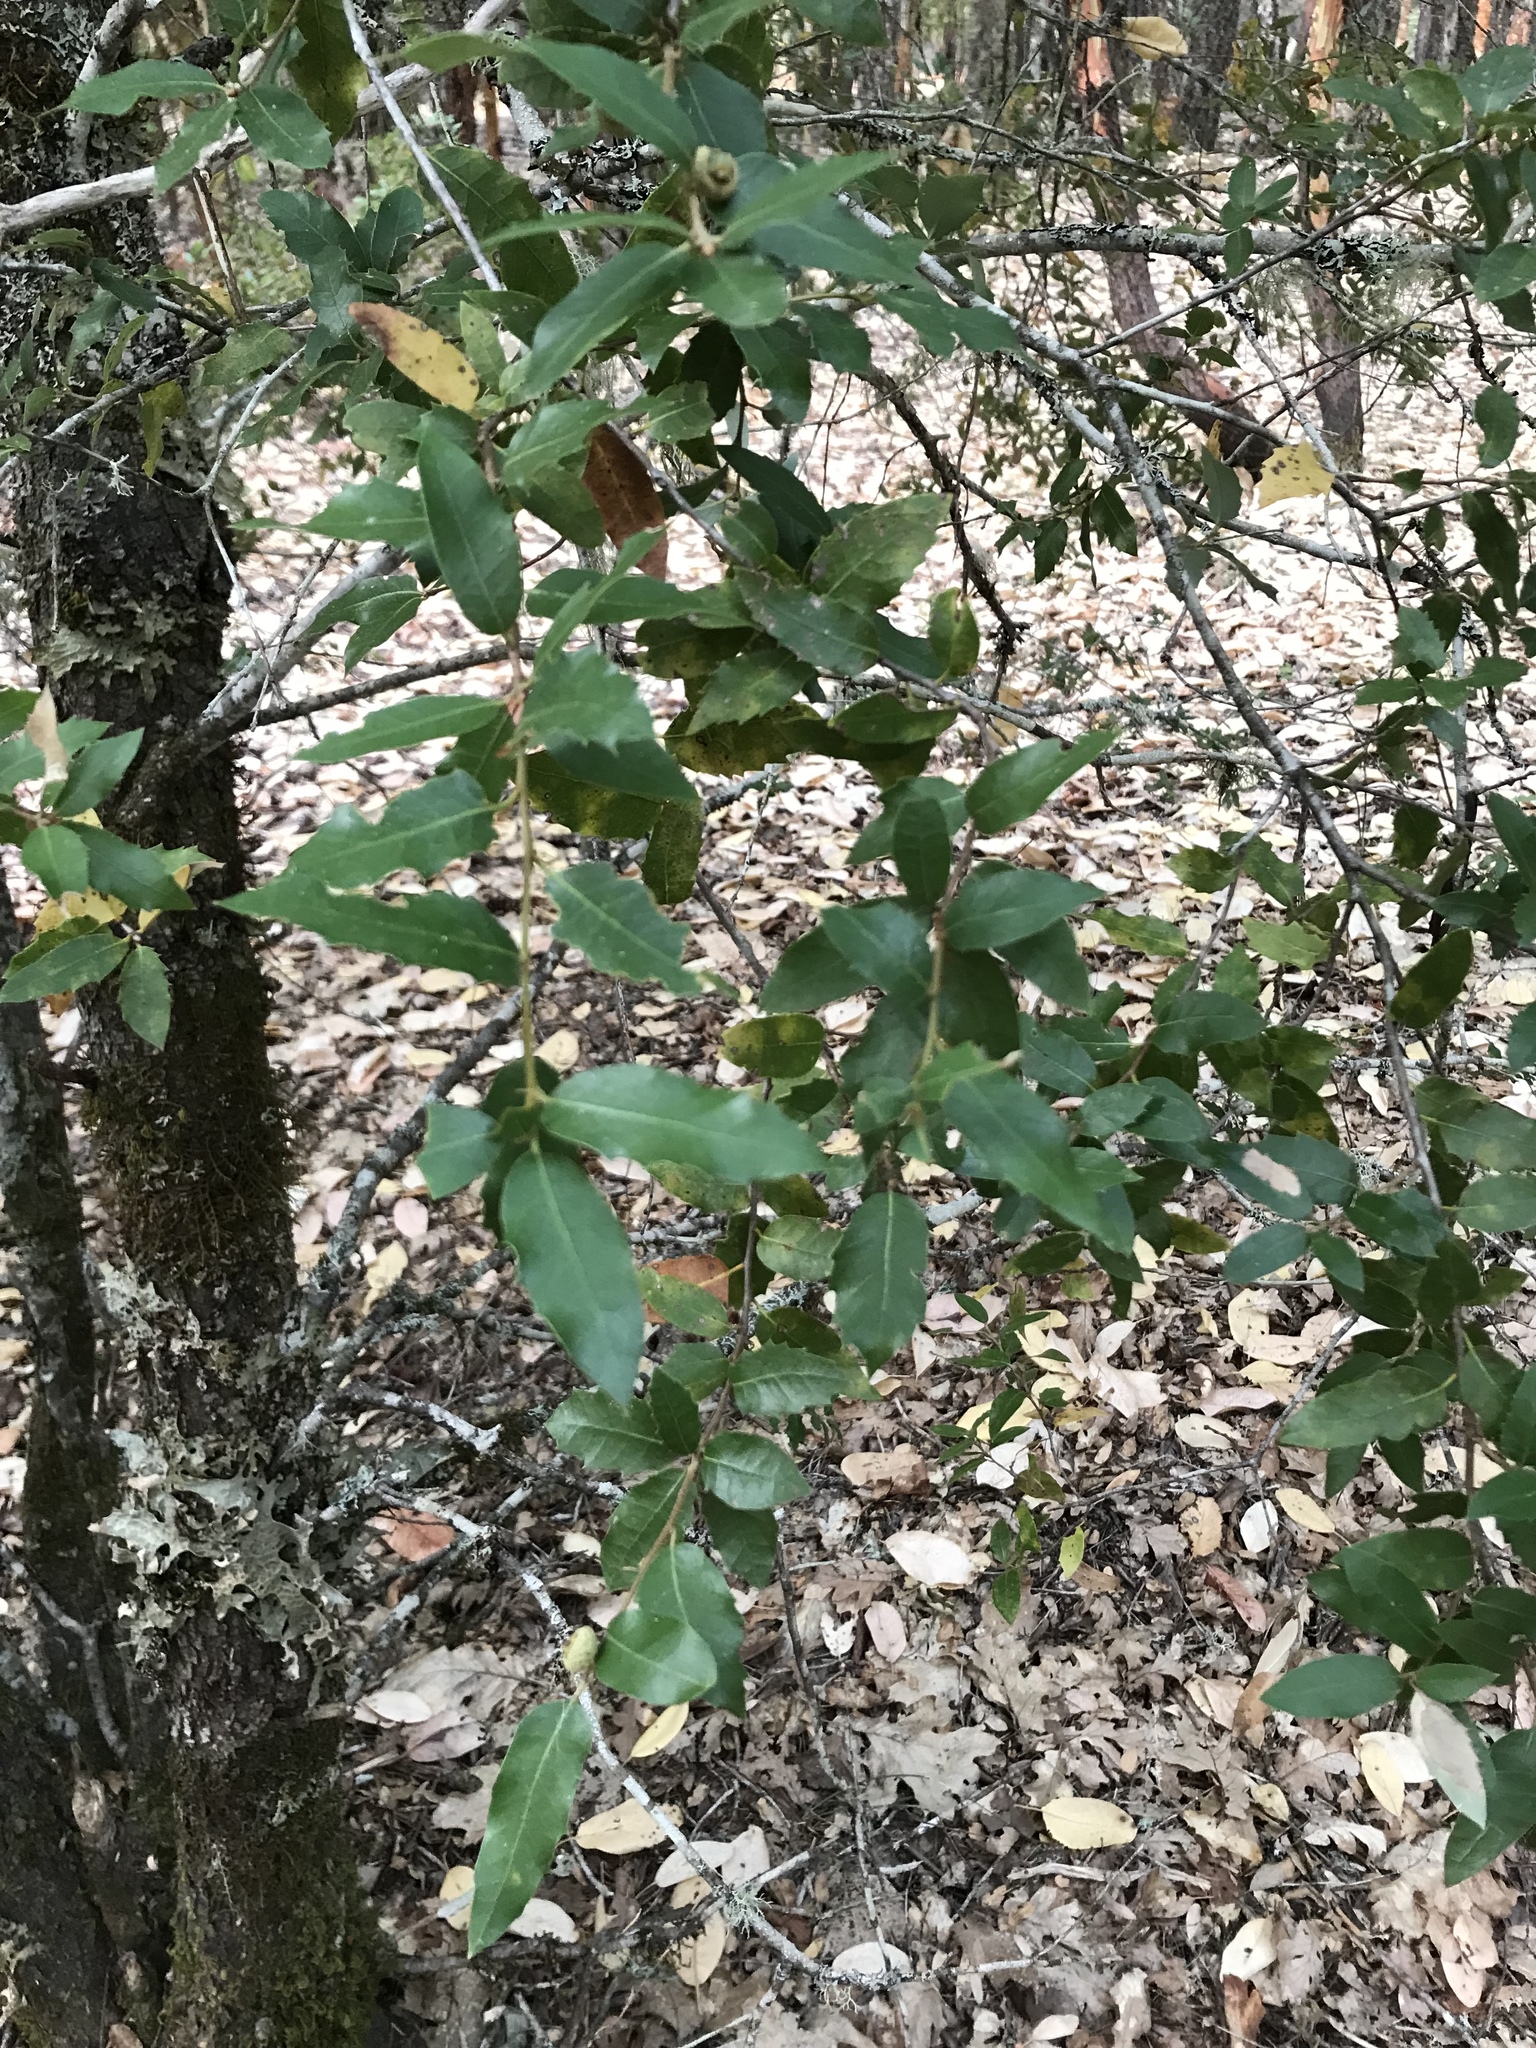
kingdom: Plantae
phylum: Tracheophyta
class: Magnoliopsida
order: Fagales
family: Fagaceae
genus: Quercus
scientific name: Quercus chrysolepis
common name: Canyon live oak
